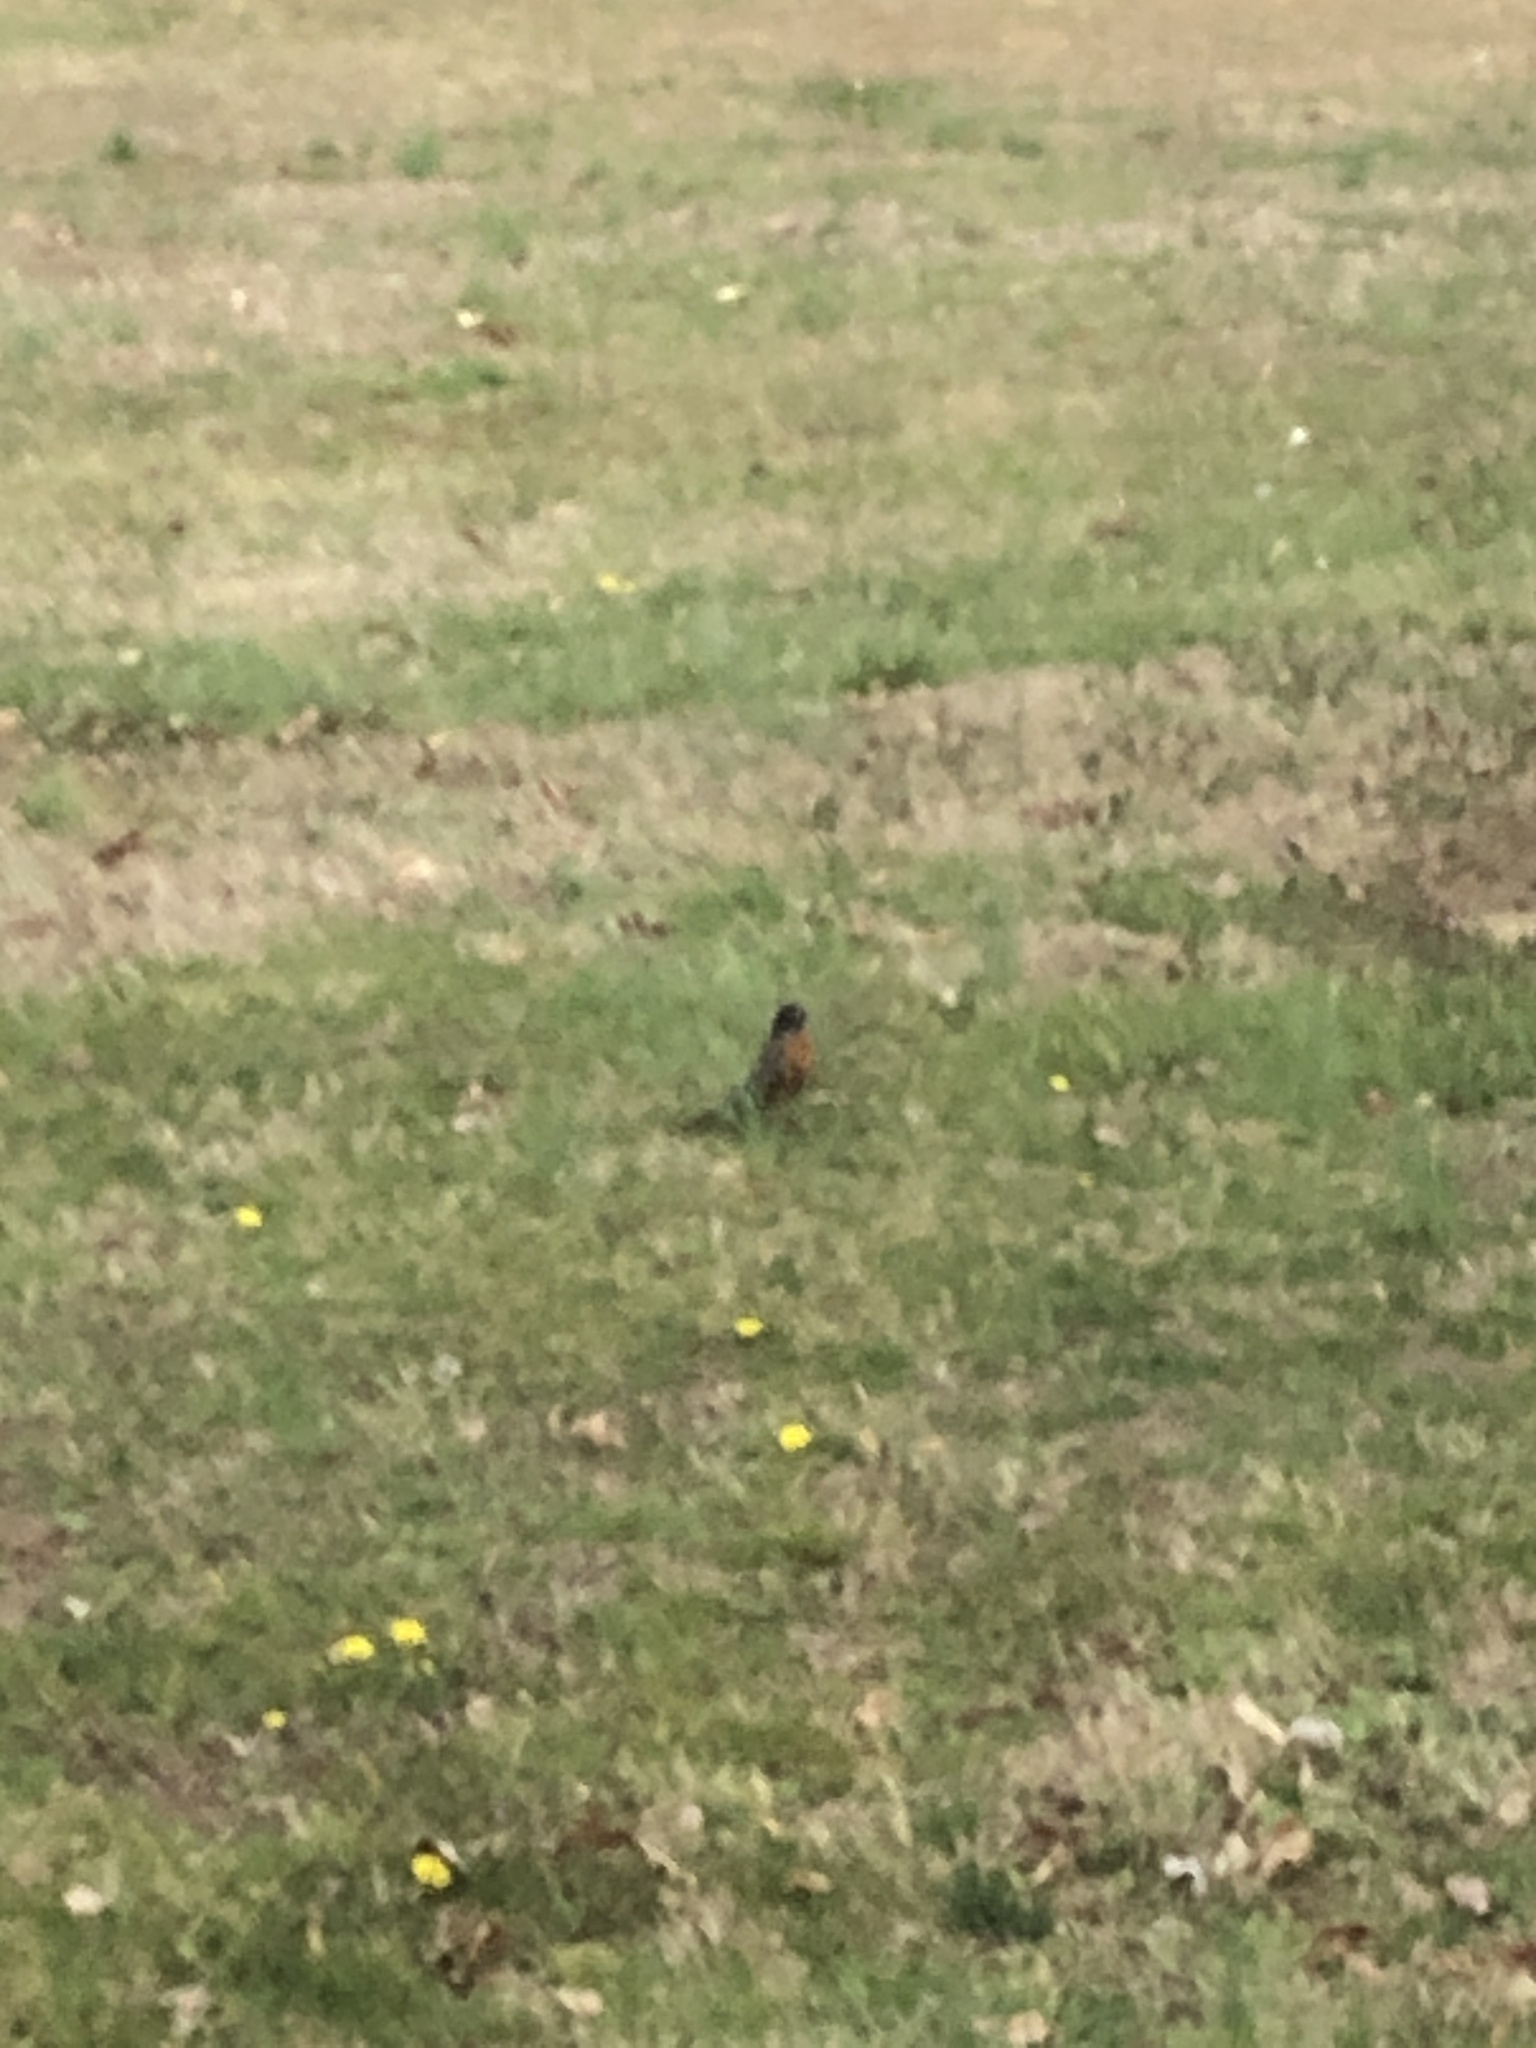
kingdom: Animalia
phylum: Chordata
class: Aves
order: Passeriformes
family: Turdidae
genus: Turdus
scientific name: Turdus migratorius
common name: American robin
